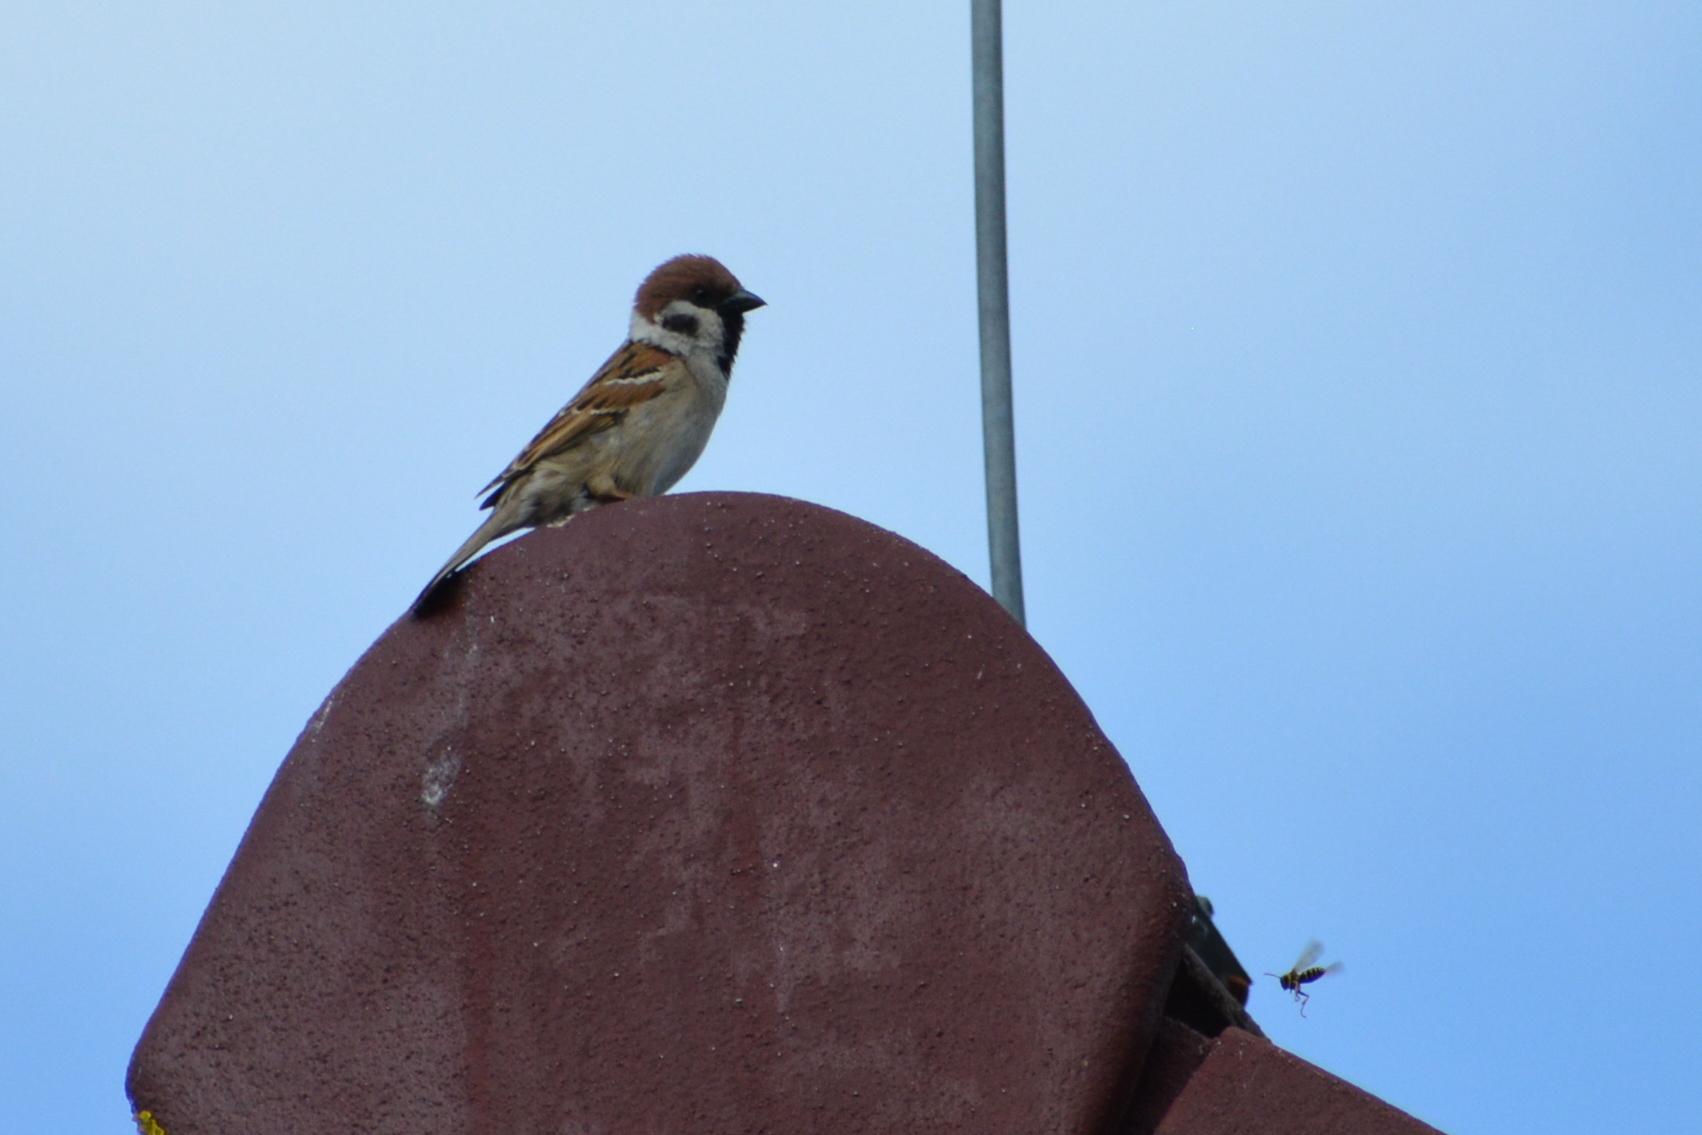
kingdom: Animalia
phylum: Chordata
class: Aves
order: Passeriformes
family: Passeridae
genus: Passer
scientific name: Passer montanus
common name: Eurasian tree sparrow
